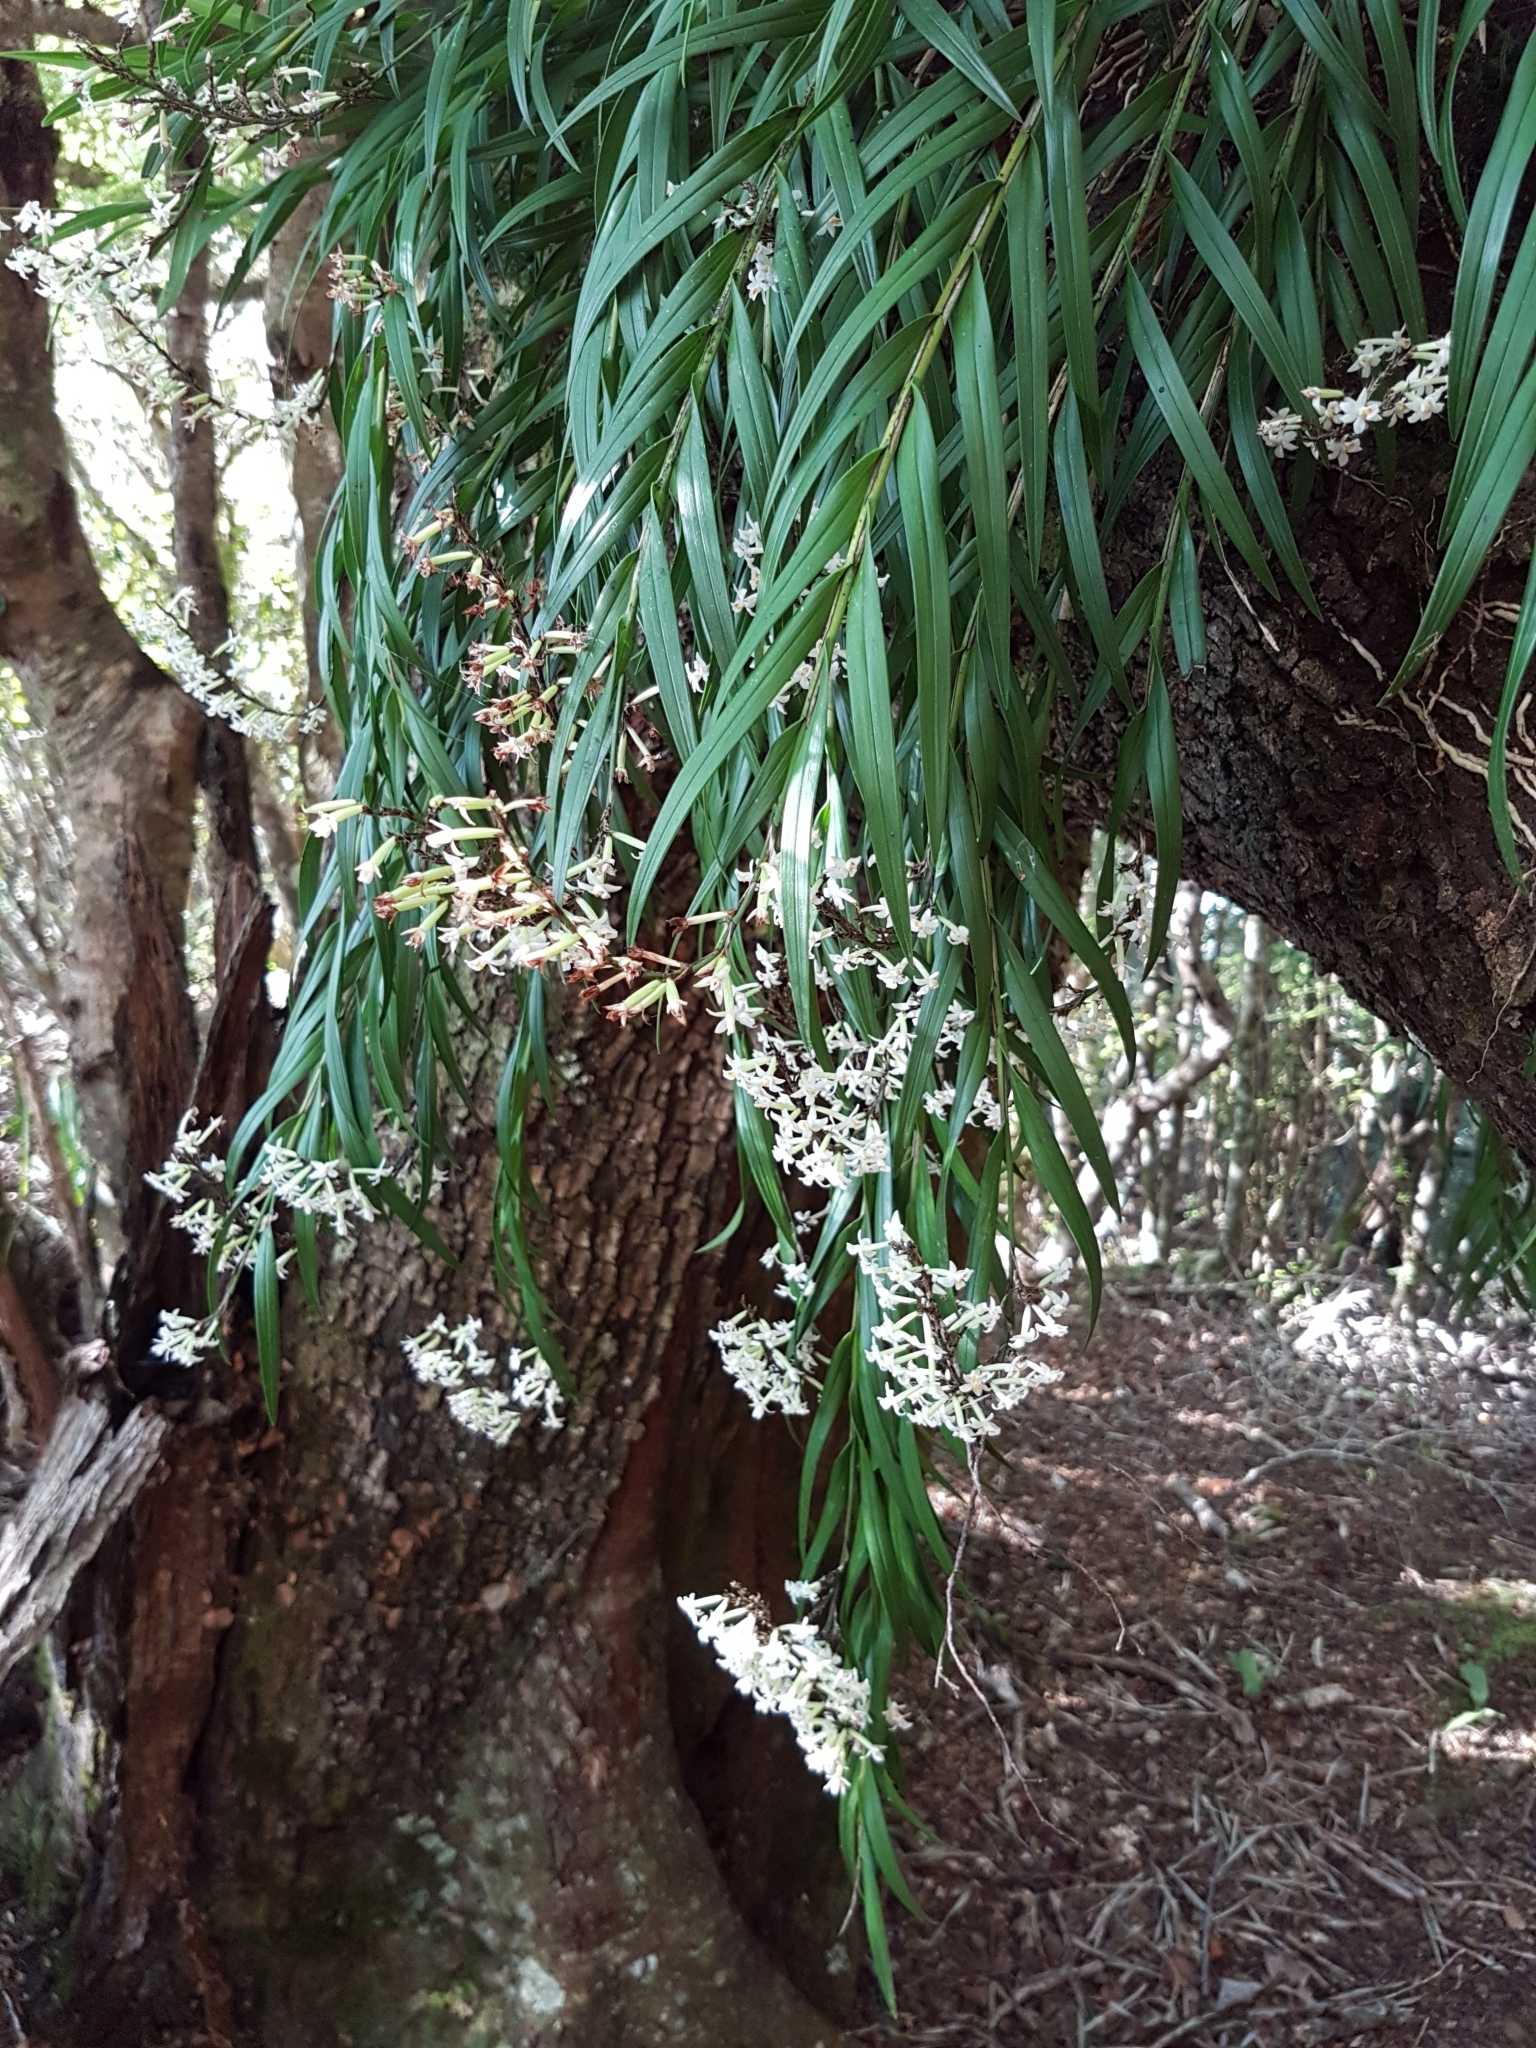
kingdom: Plantae
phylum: Tracheophyta
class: Liliopsida
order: Asparagales
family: Orchidaceae
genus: Earina
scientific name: Earina autumnalis
